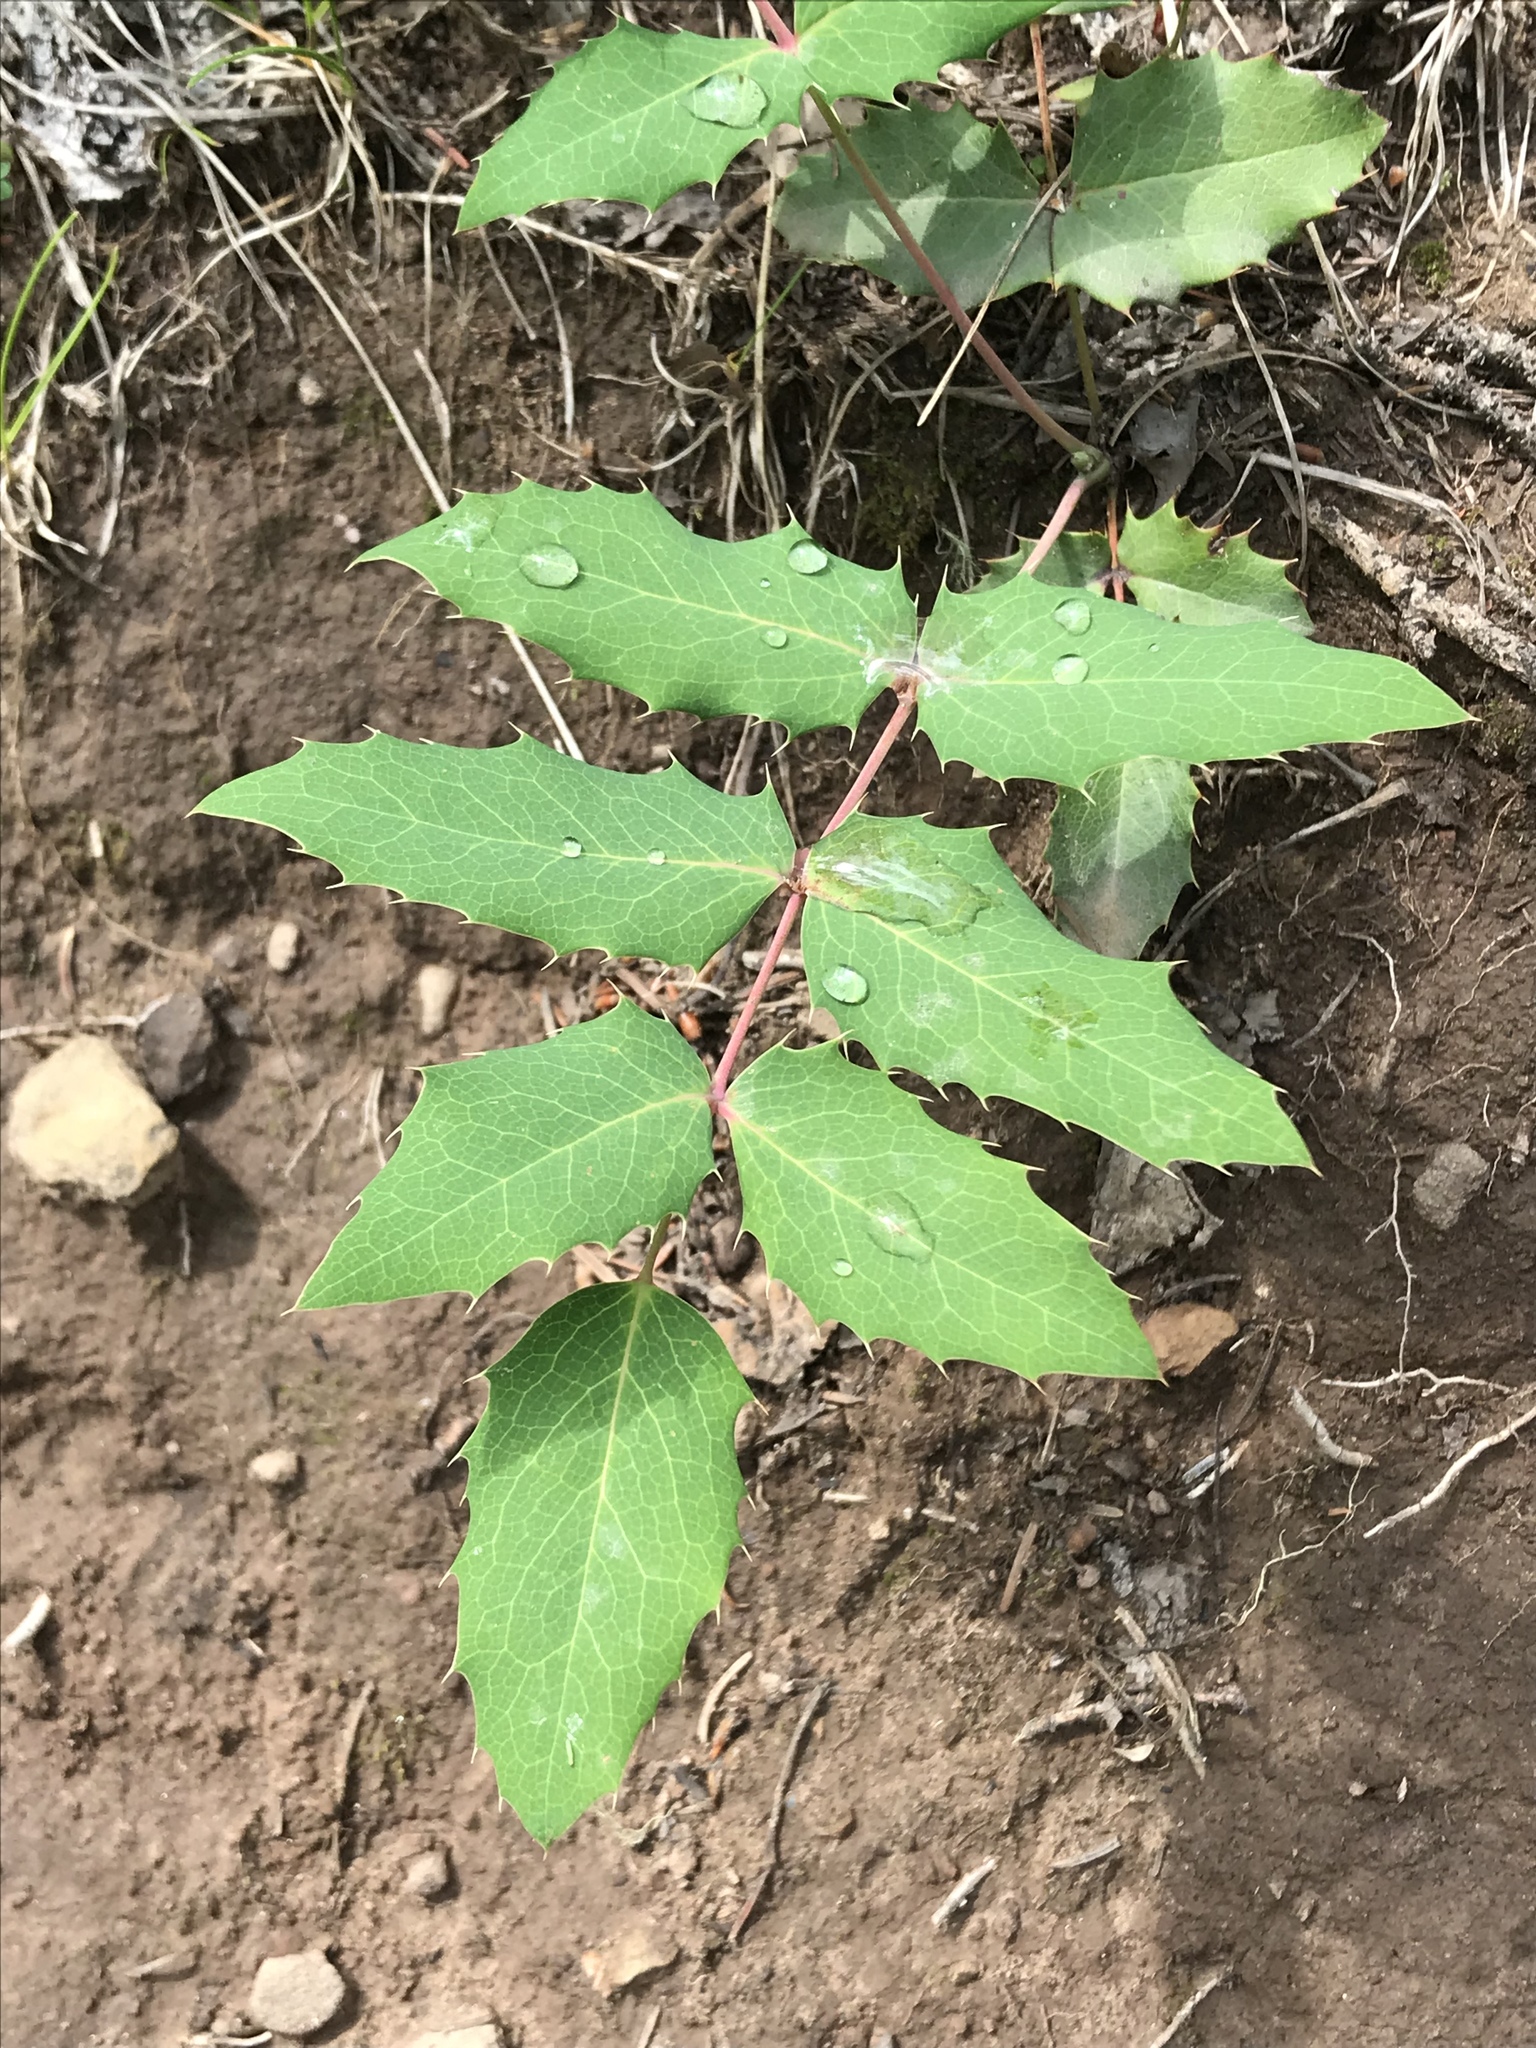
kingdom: Plantae
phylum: Tracheophyta
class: Magnoliopsida
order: Ranunculales
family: Berberidaceae
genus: Mahonia
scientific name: Mahonia repens
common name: Creeping oregon-grape
